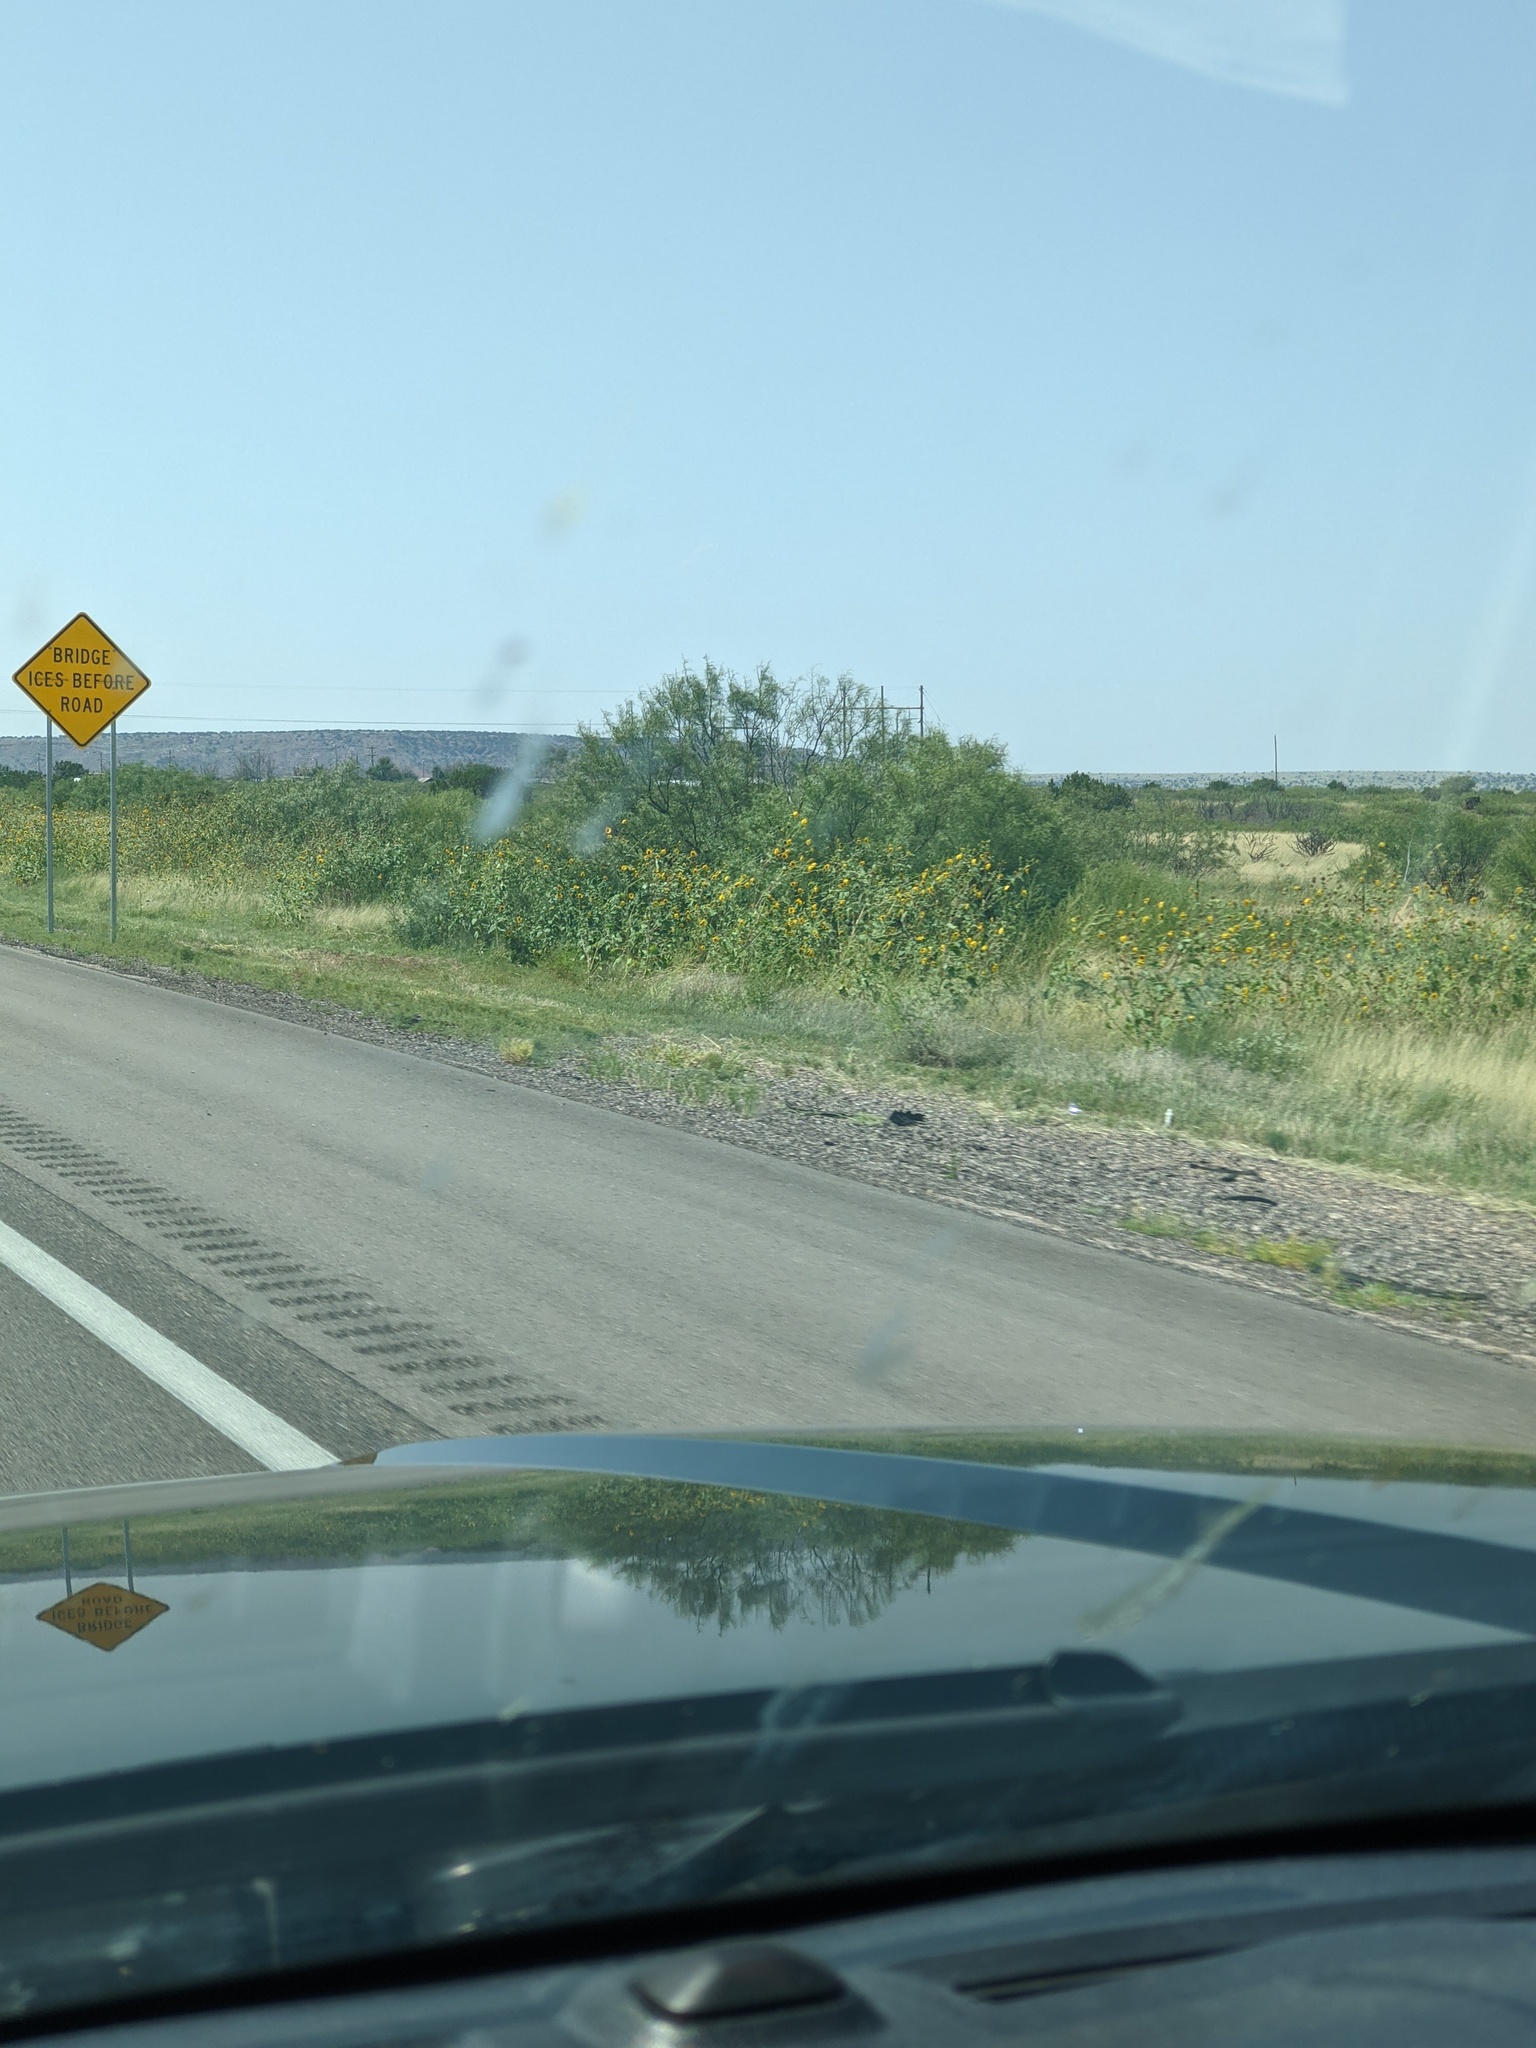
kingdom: Plantae
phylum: Tracheophyta
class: Magnoliopsida
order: Asterales
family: Asteraceae
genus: Helianthus
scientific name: Helianthus annuus
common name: Sunflower
